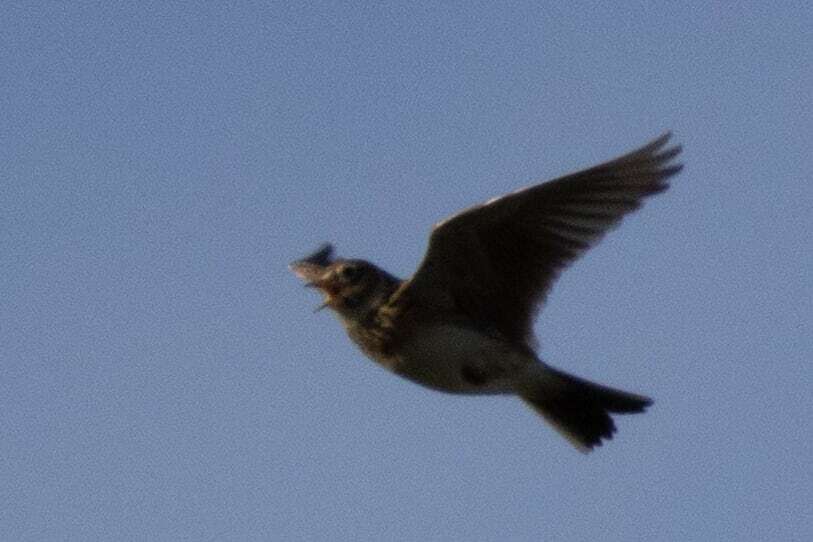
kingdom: Animalia
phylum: Chordata
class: Aves
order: Passeriformes
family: Alaudidae
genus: Alauda
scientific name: Alauda arvensis
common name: Eurasian skylark
